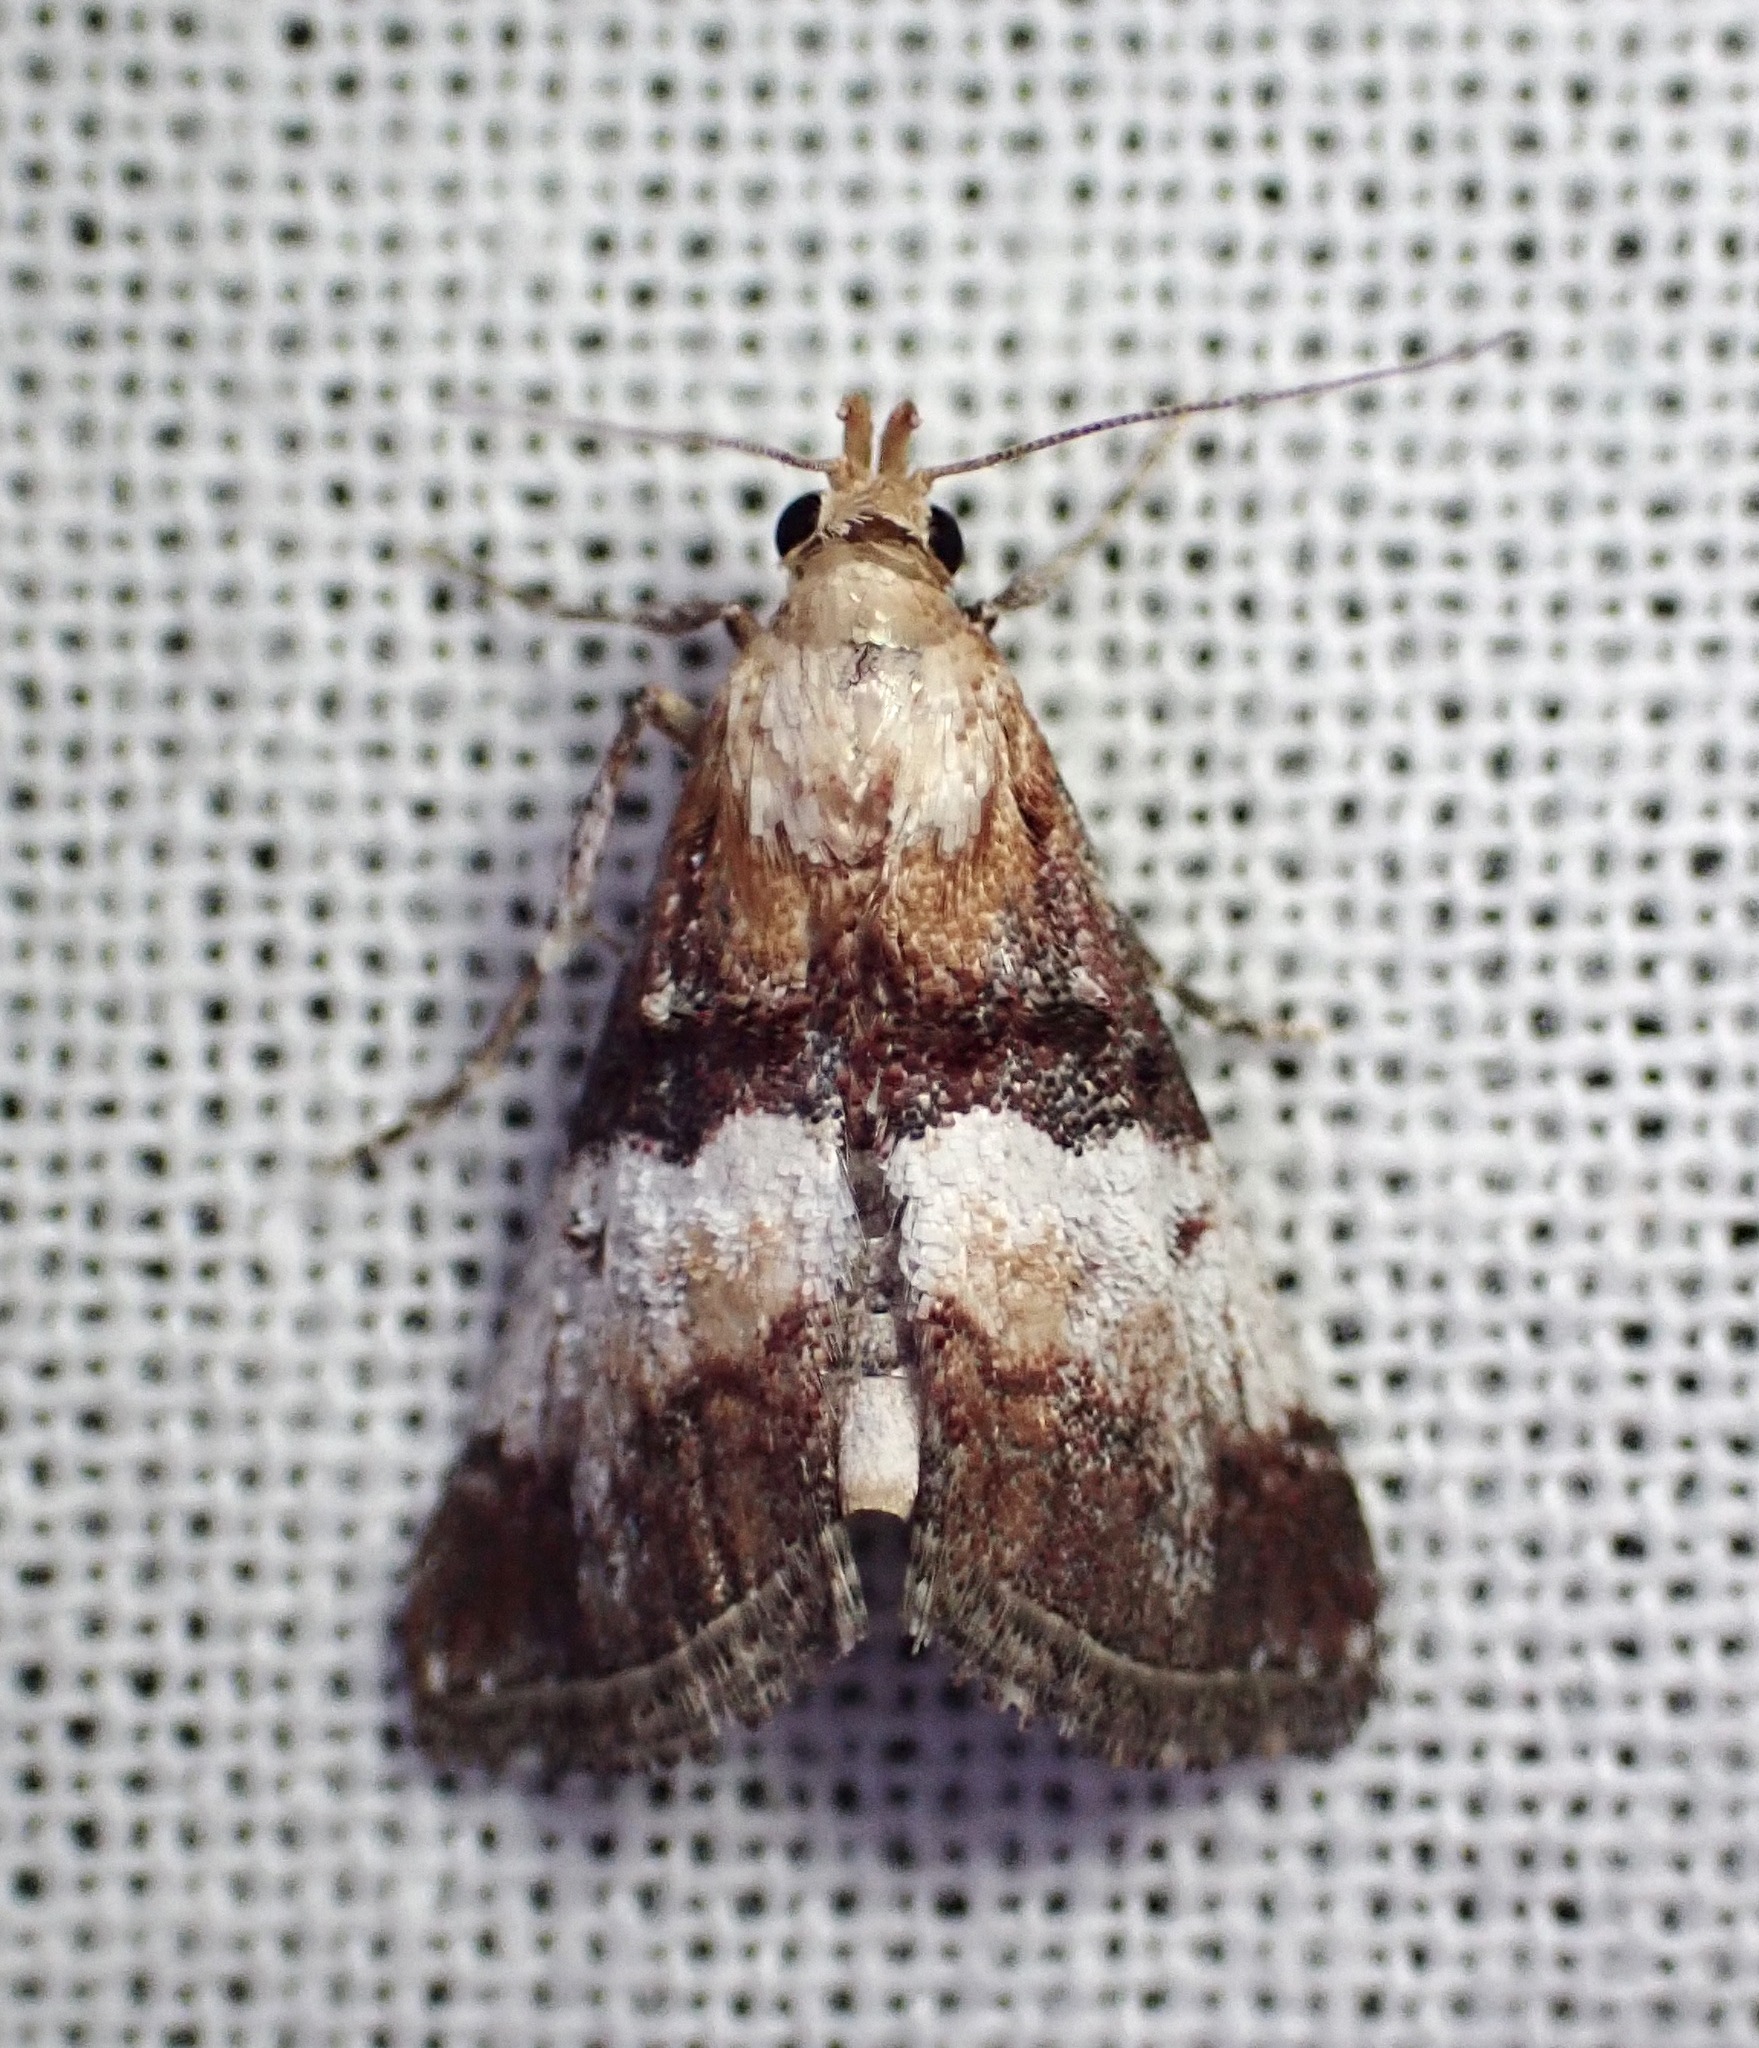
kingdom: Animalia
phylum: Arthropoda
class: Insecta
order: Lepidoptera
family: Pyralidae
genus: Toripalpus
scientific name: Toripalpus trabalis
